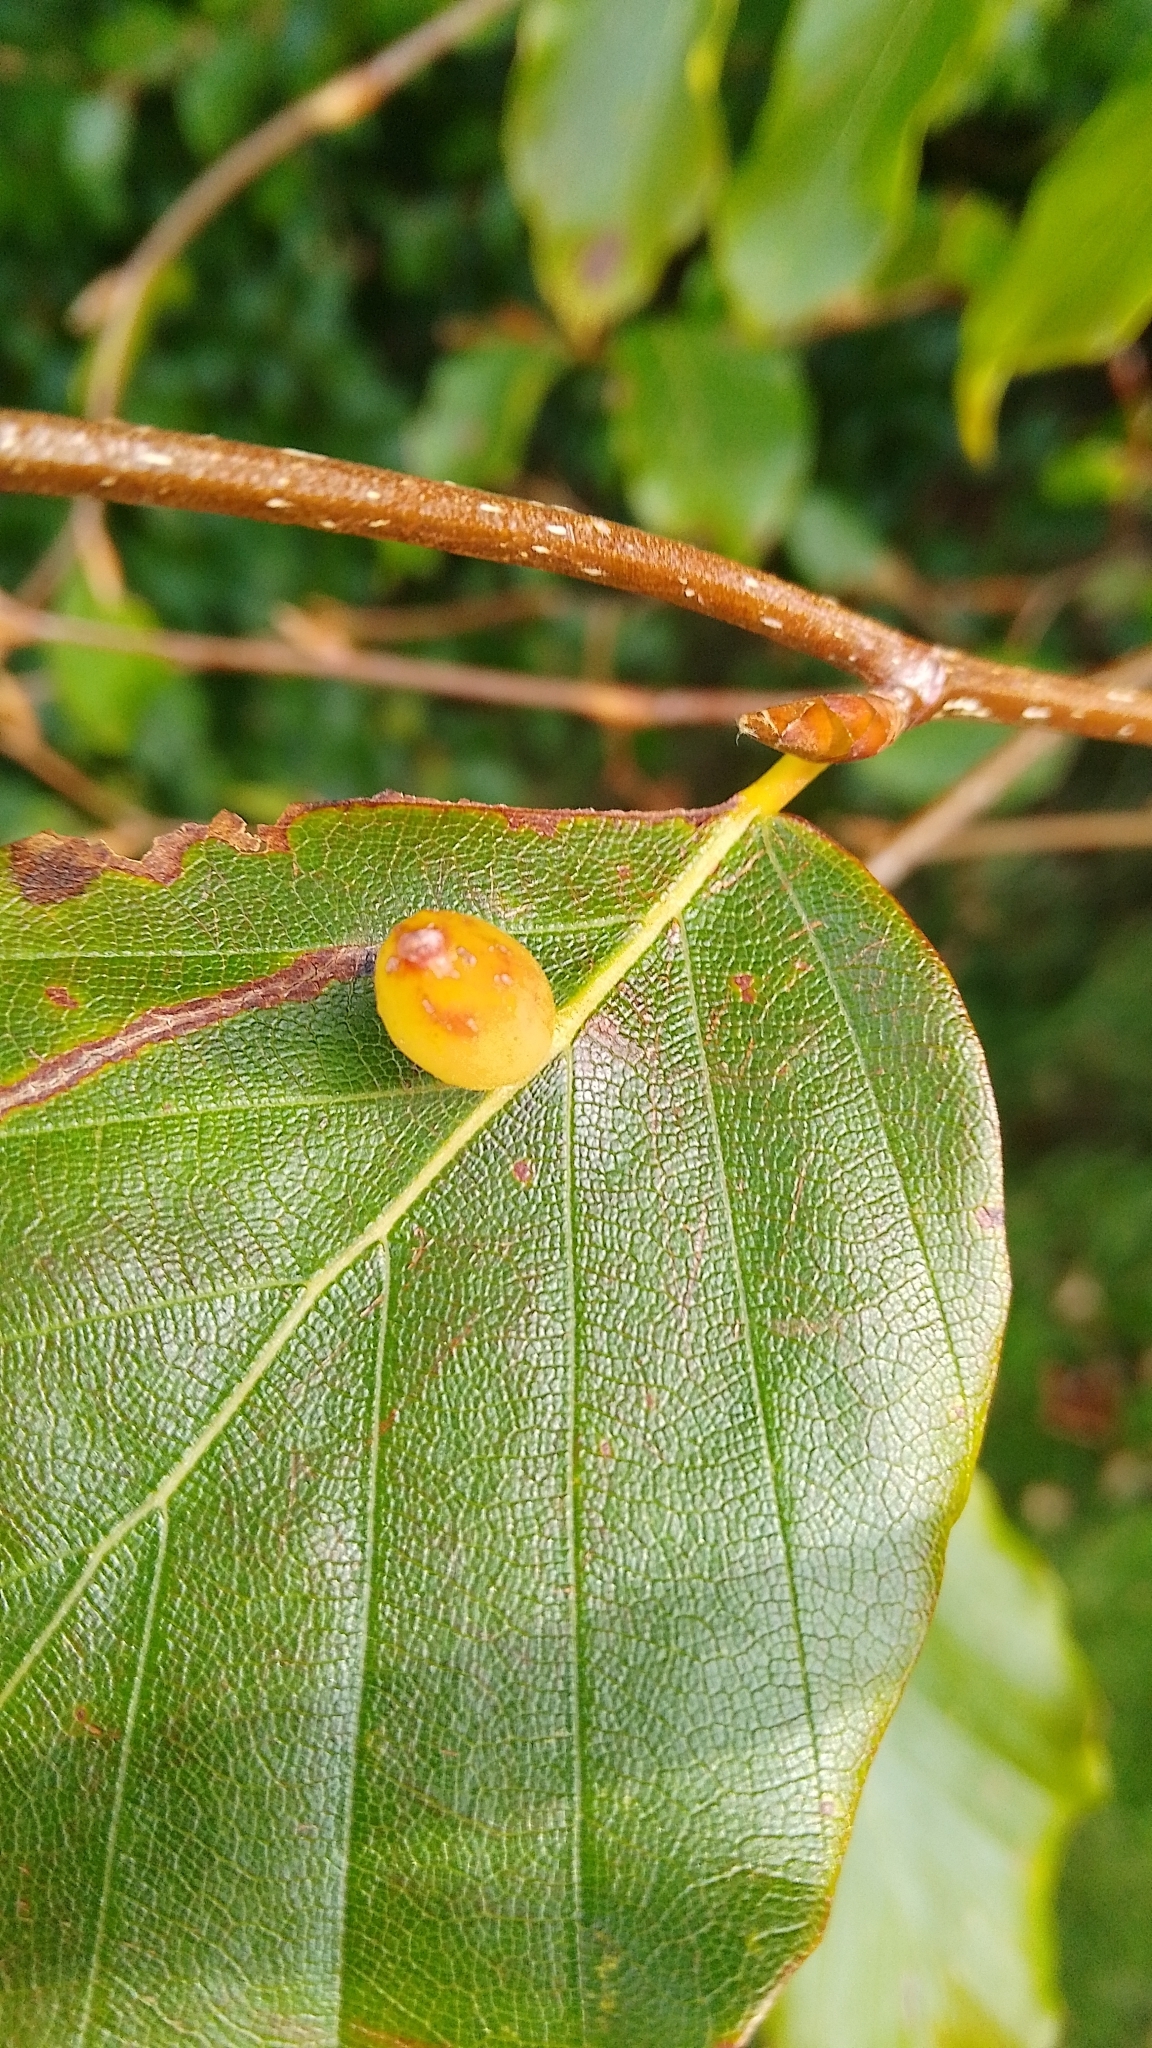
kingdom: Animalia
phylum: Arthropoda
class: Insecta
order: Diptera
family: Cecidomyiidae
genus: Mikiola
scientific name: Mikiola fagi
